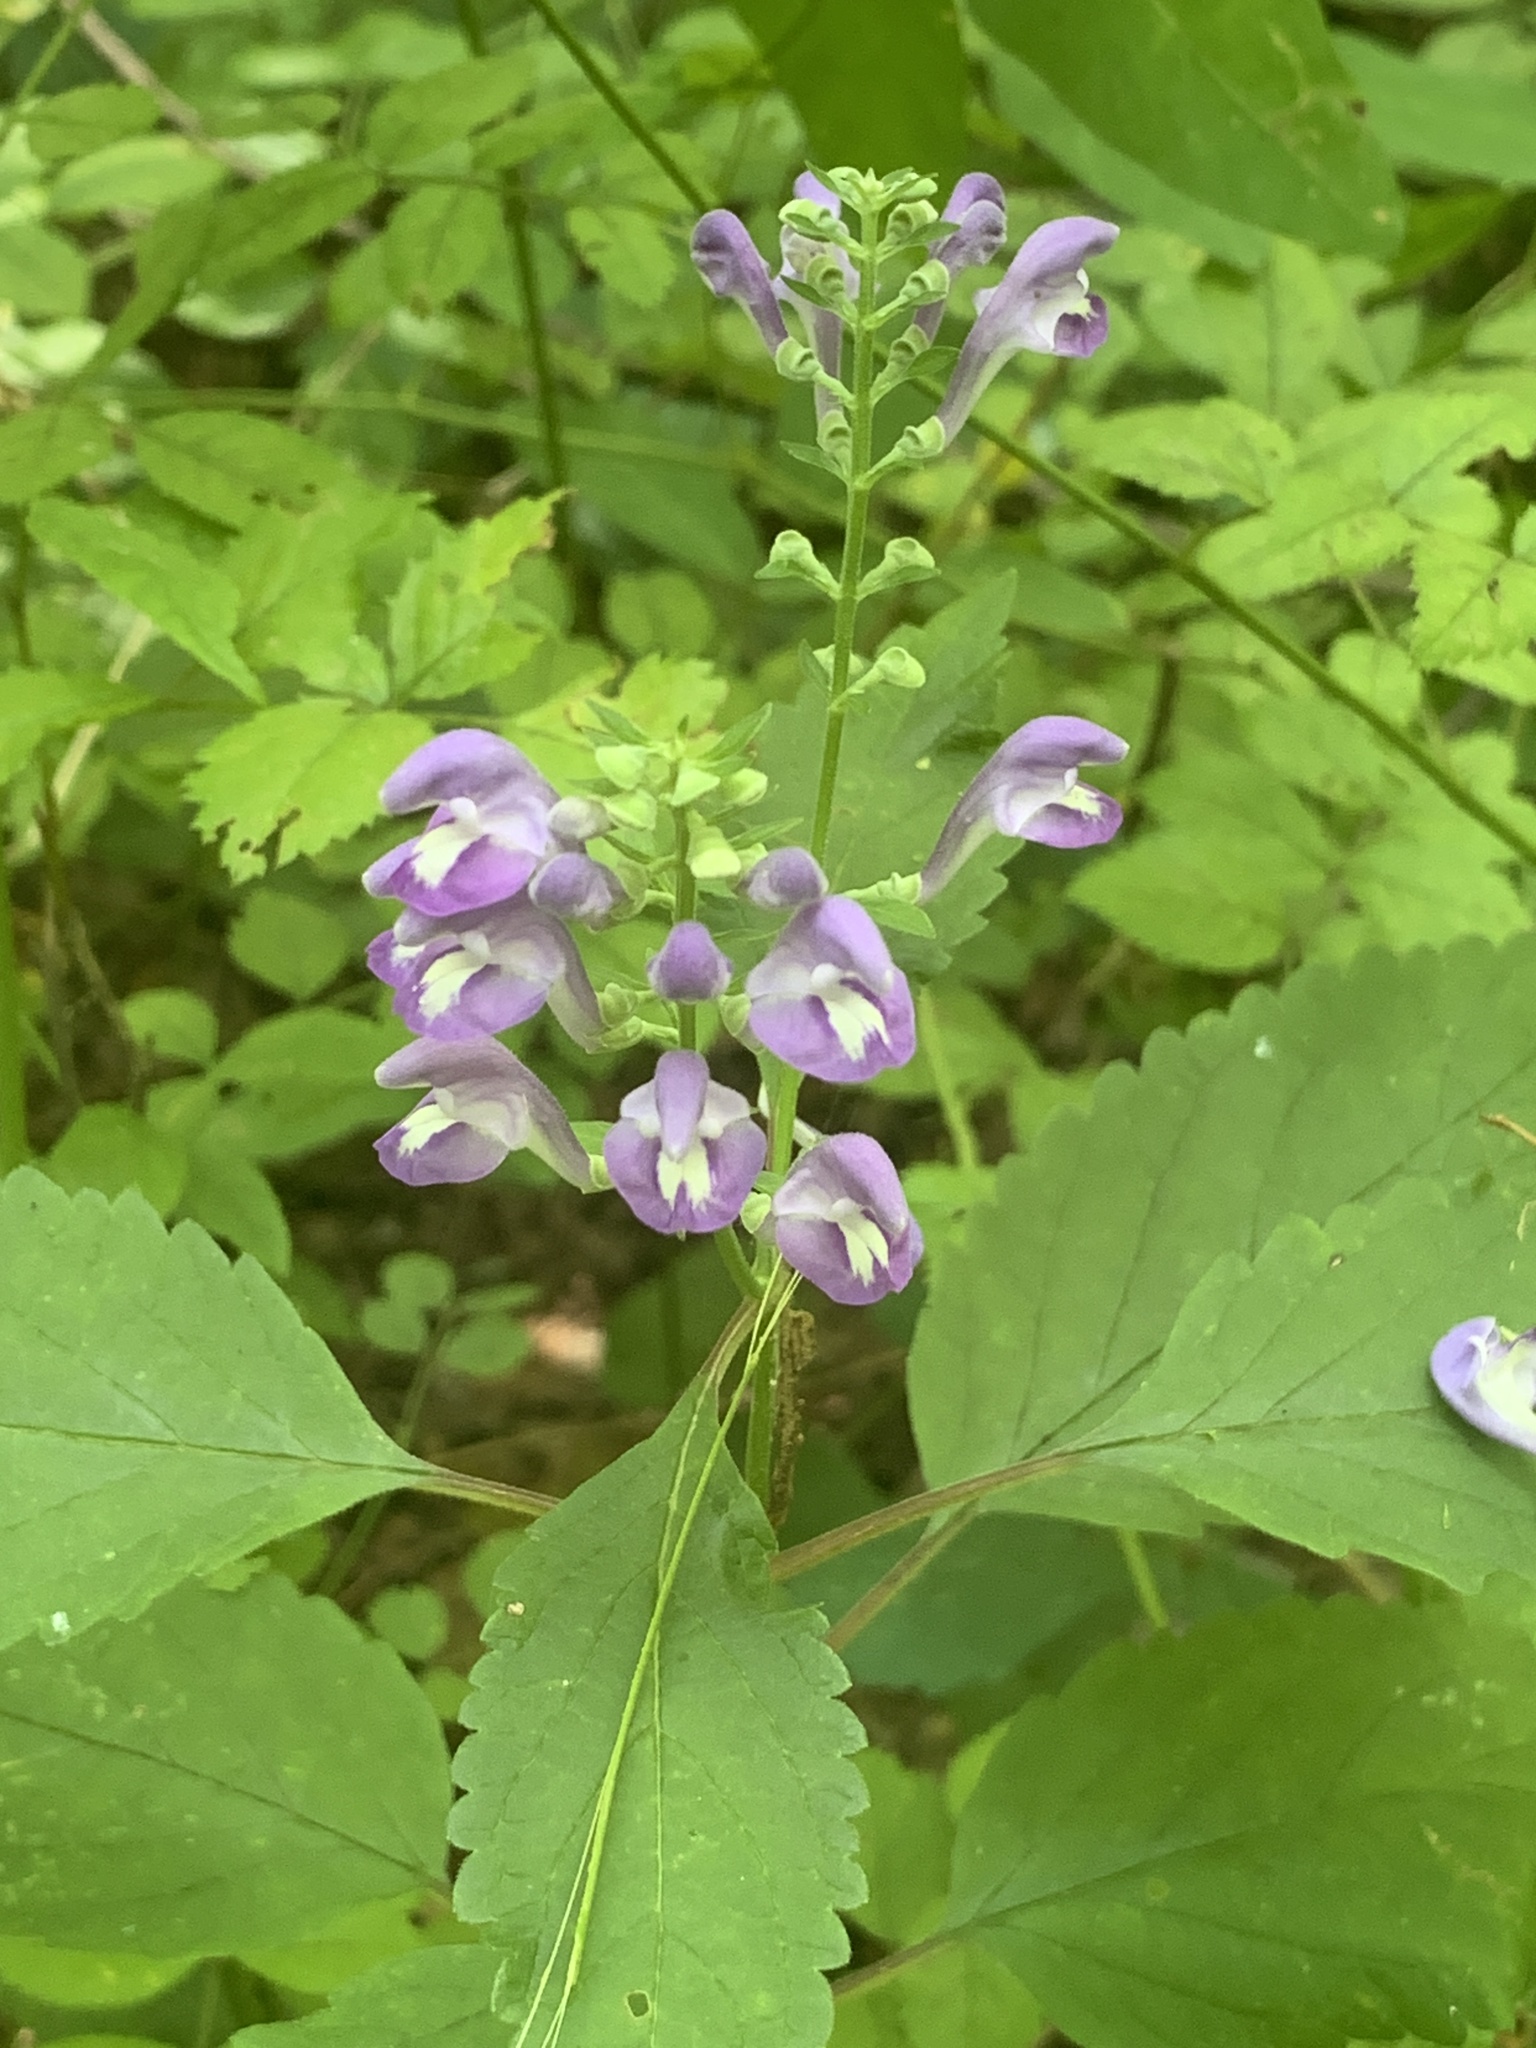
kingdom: Plantae
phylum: Tracheophyta
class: Magnoliopsida
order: Lamiales
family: Lamiaceae
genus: Scutellaria
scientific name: Scutellaria incana
